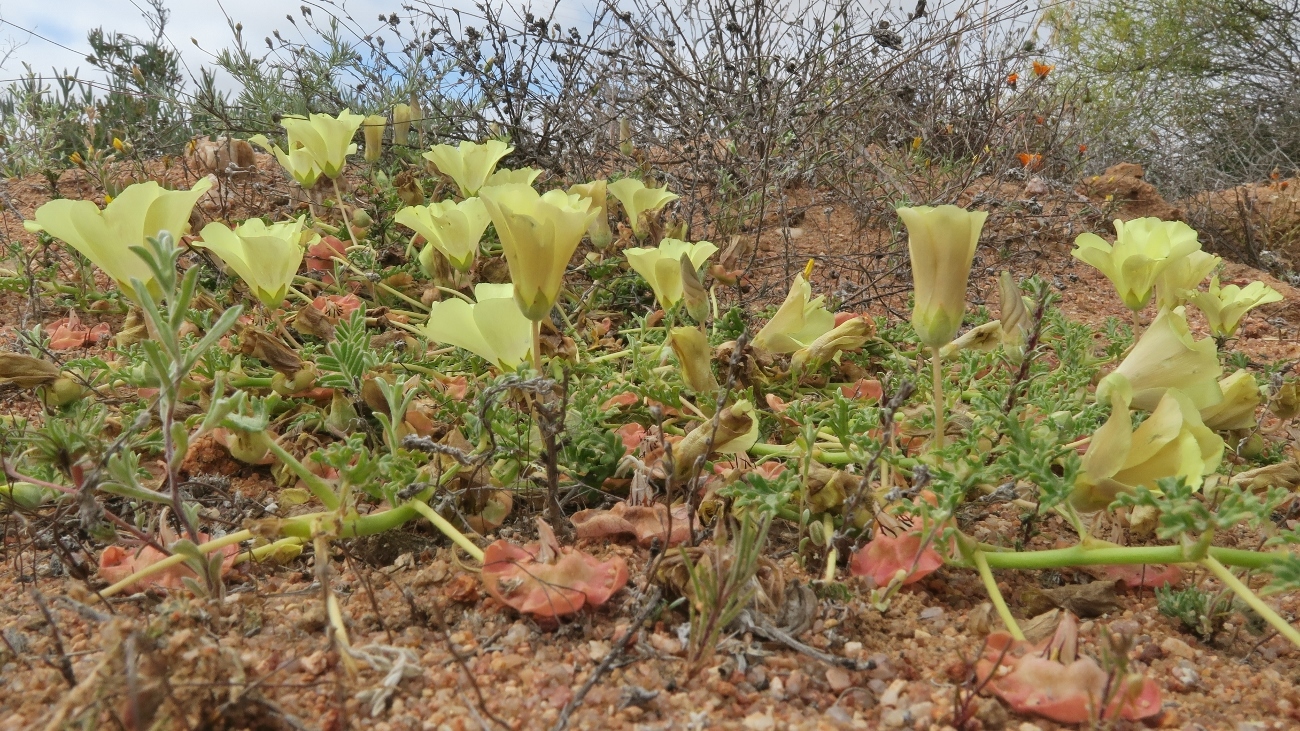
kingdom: Plantae
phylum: Tracheophyta
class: Magnoliopsida
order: Malvales
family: Neuradaceae
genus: Grielum
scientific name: Grielum humifusum
